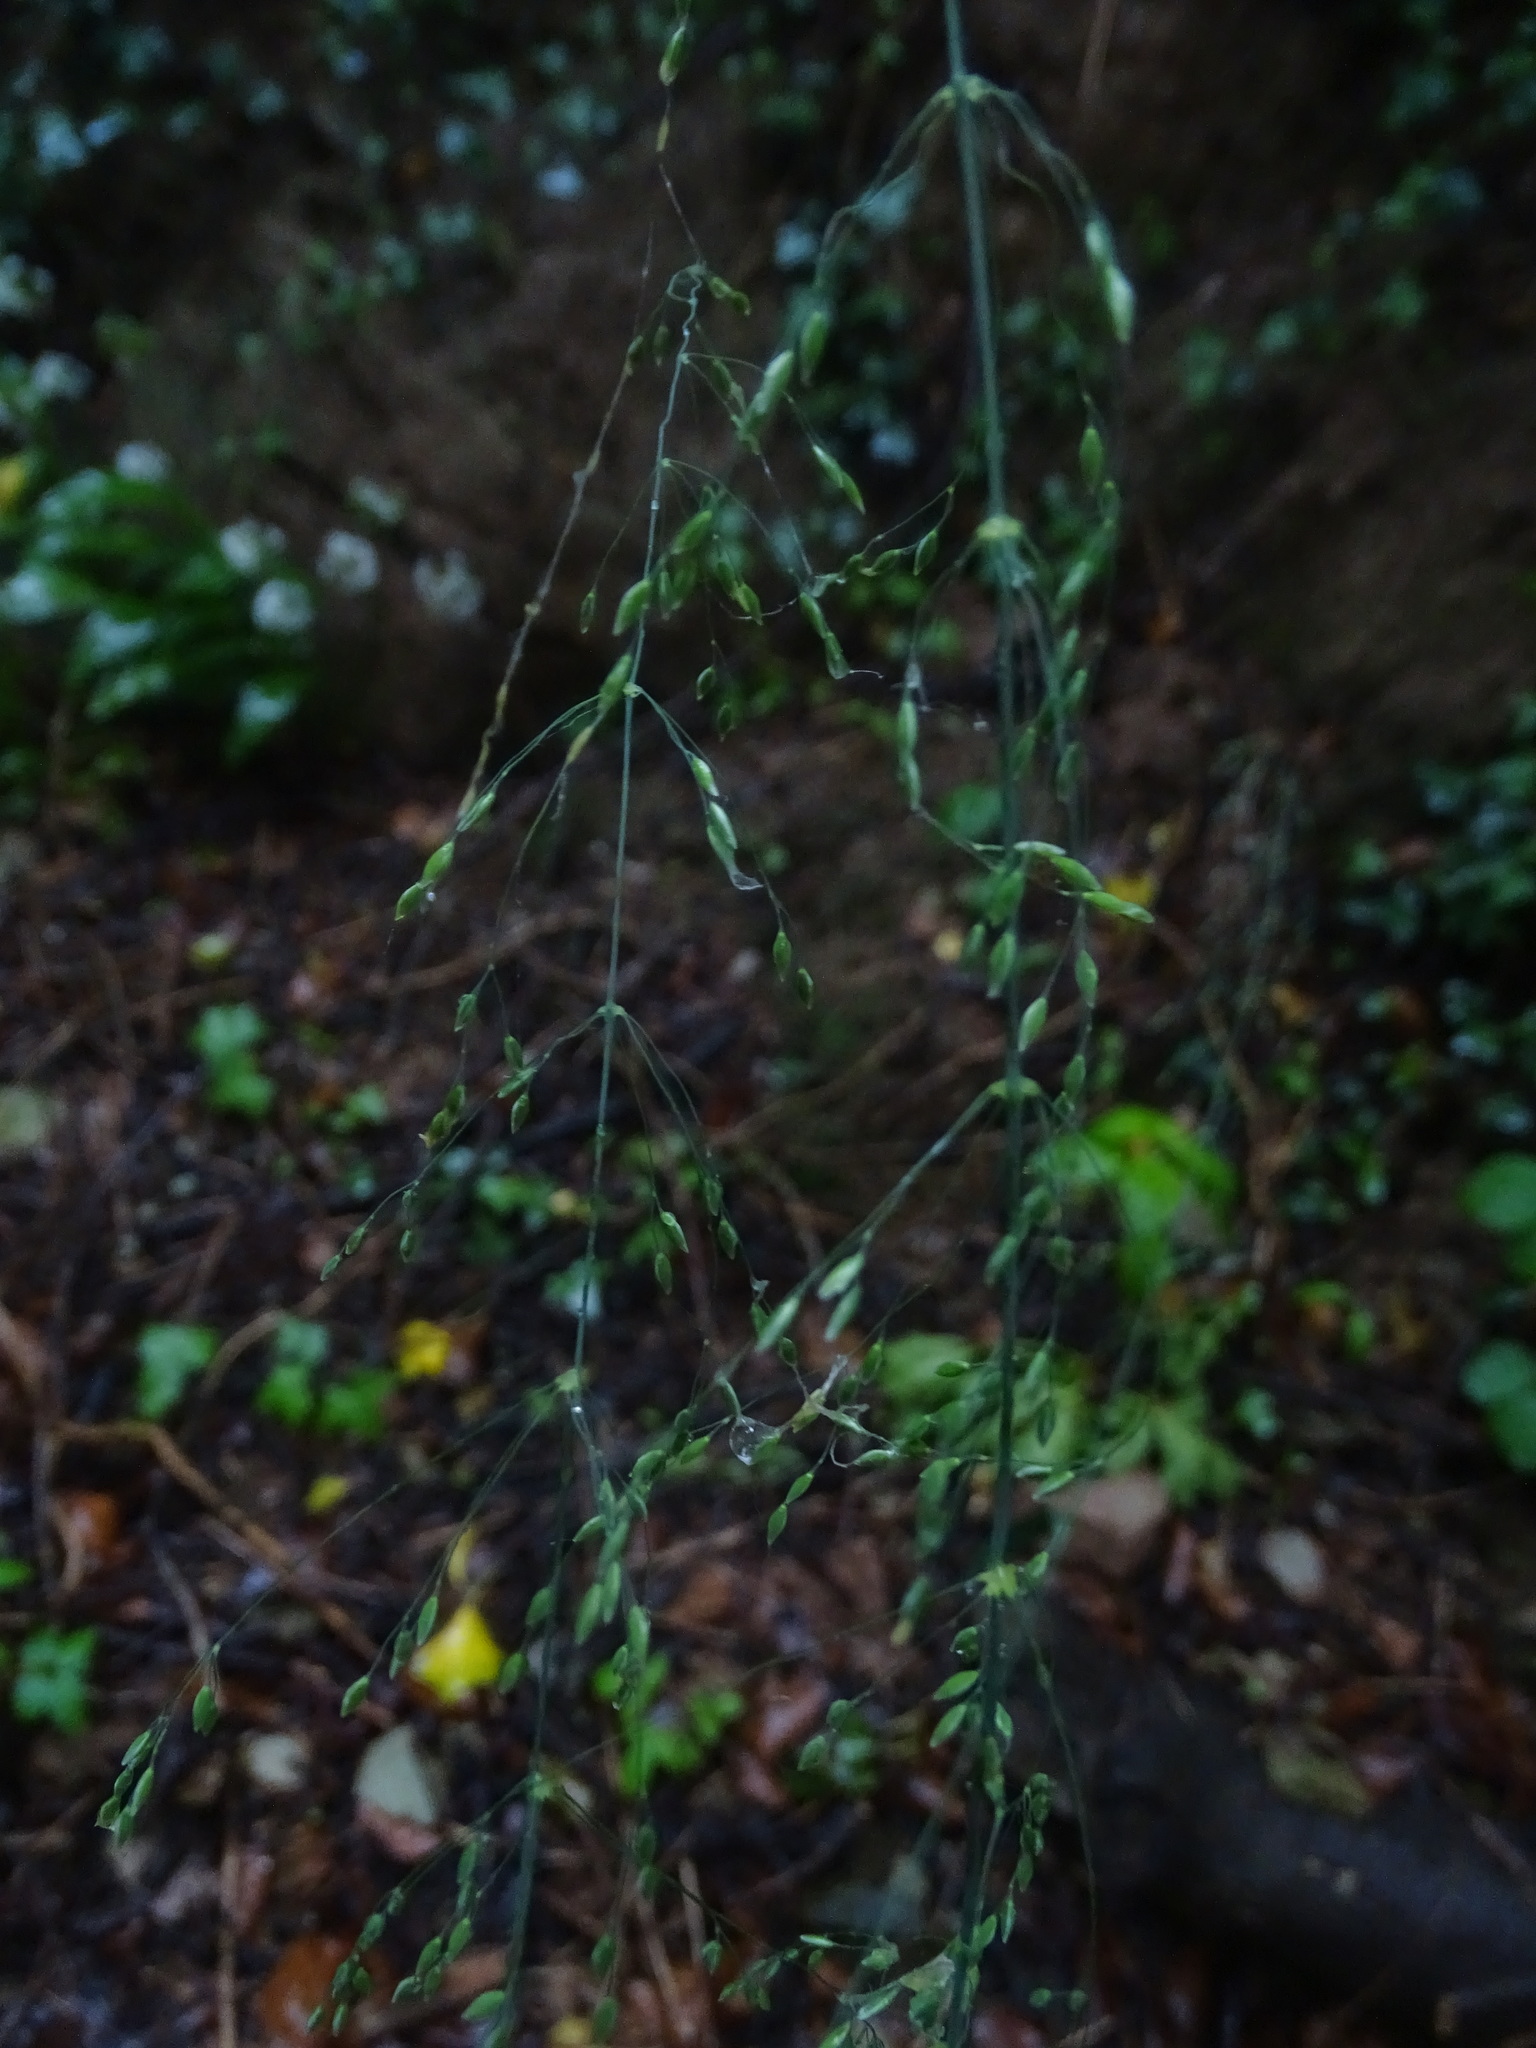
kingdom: Plantae
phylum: Tracheophyta
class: Liliopsida
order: Poales
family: Poaceae
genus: Milium
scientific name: Milium effusum
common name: Wood millet
